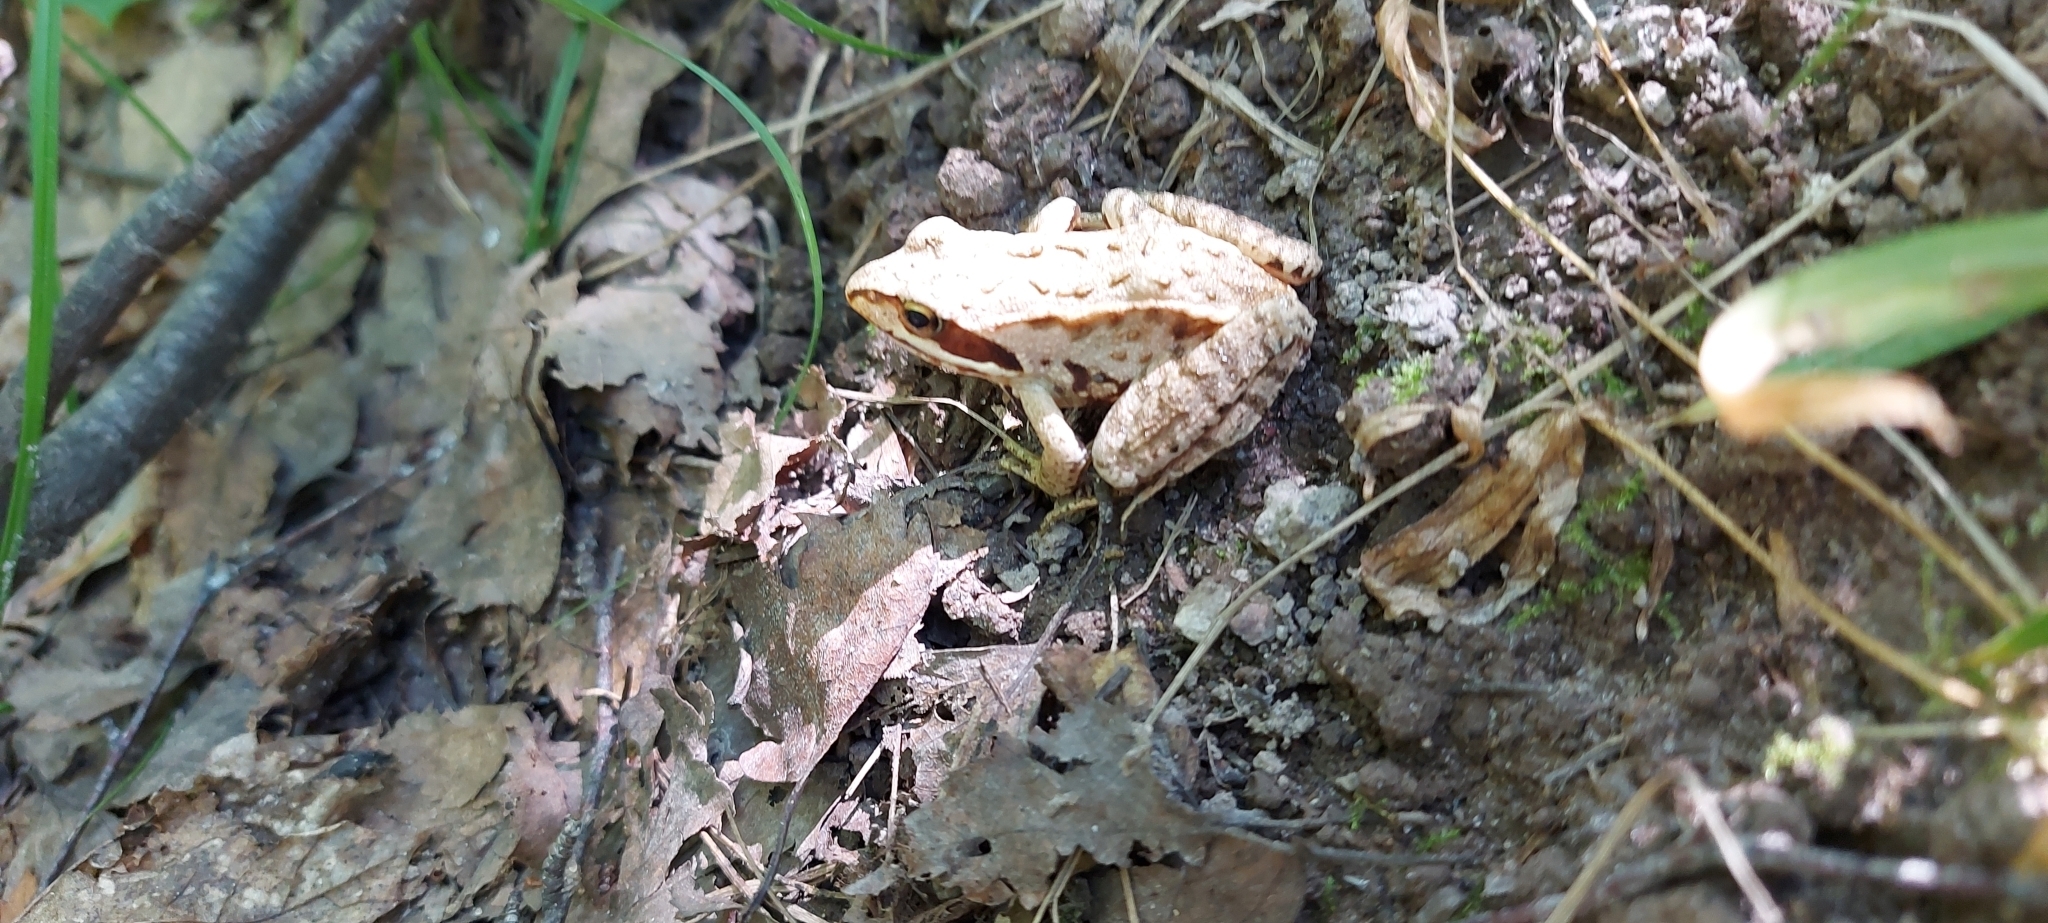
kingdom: Animalia
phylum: Chordata
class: Amphibia
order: Anura
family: Ranidae
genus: Rana
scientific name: Rana temporaria
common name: Common frog
